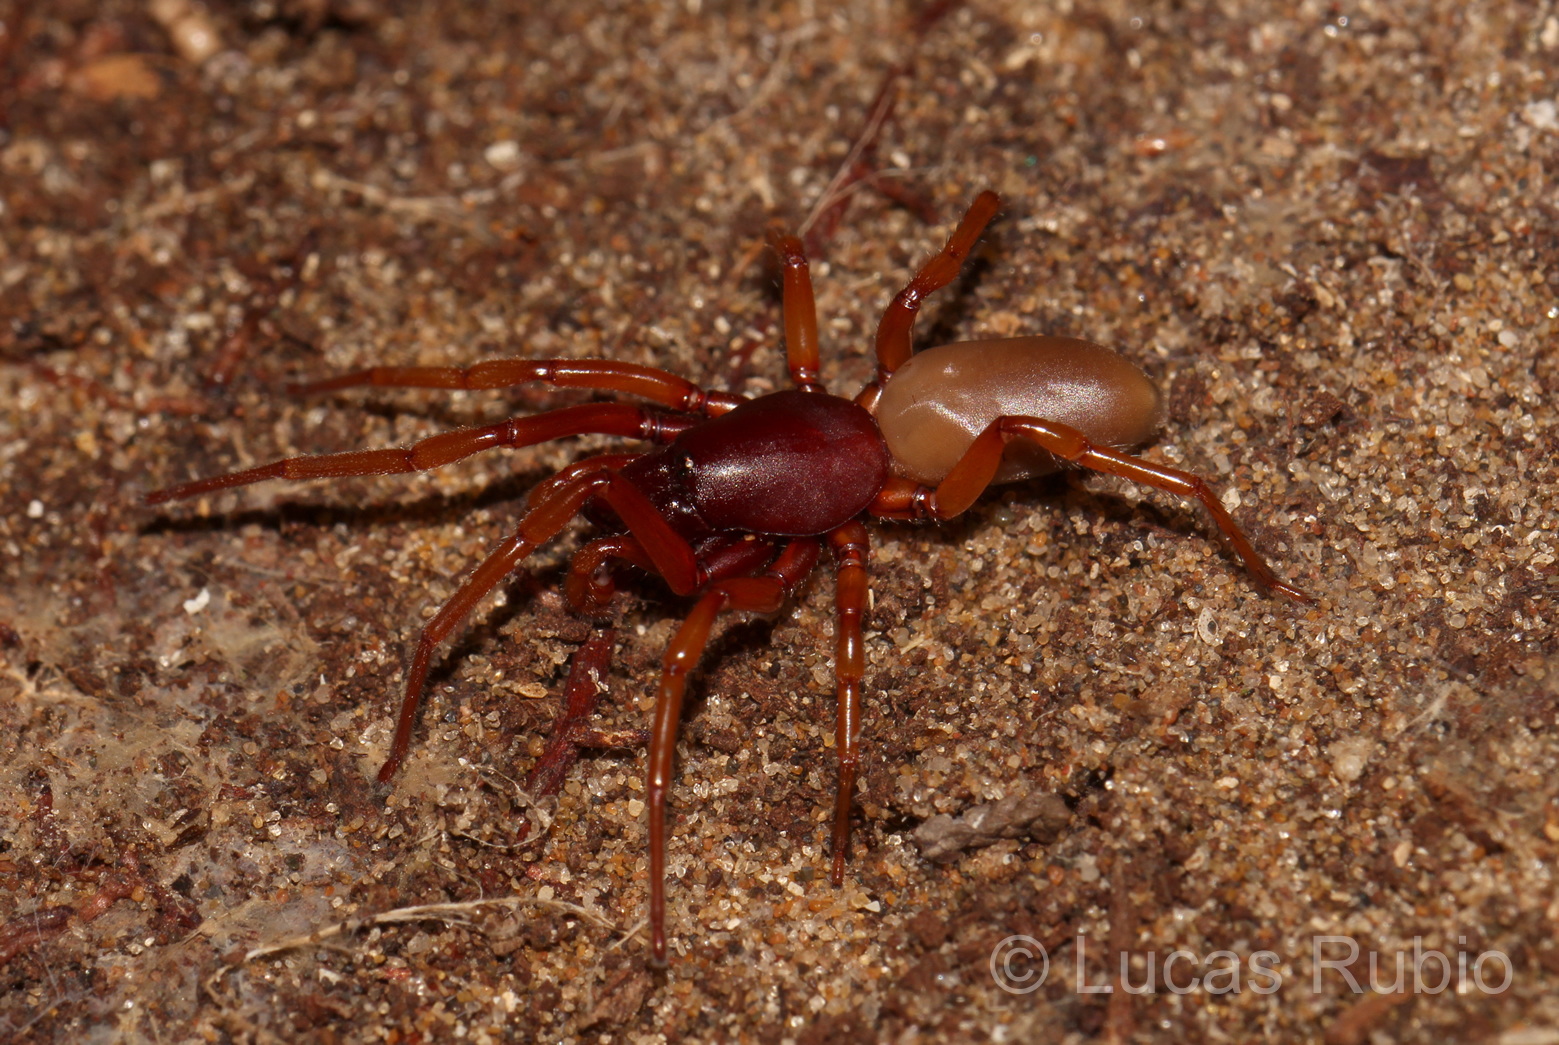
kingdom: Animalia
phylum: Arthropoda
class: Arachnida
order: Araneae
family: Dysderidae
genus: Dysdera
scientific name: Dysdera crocata
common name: Woodlouse spider
